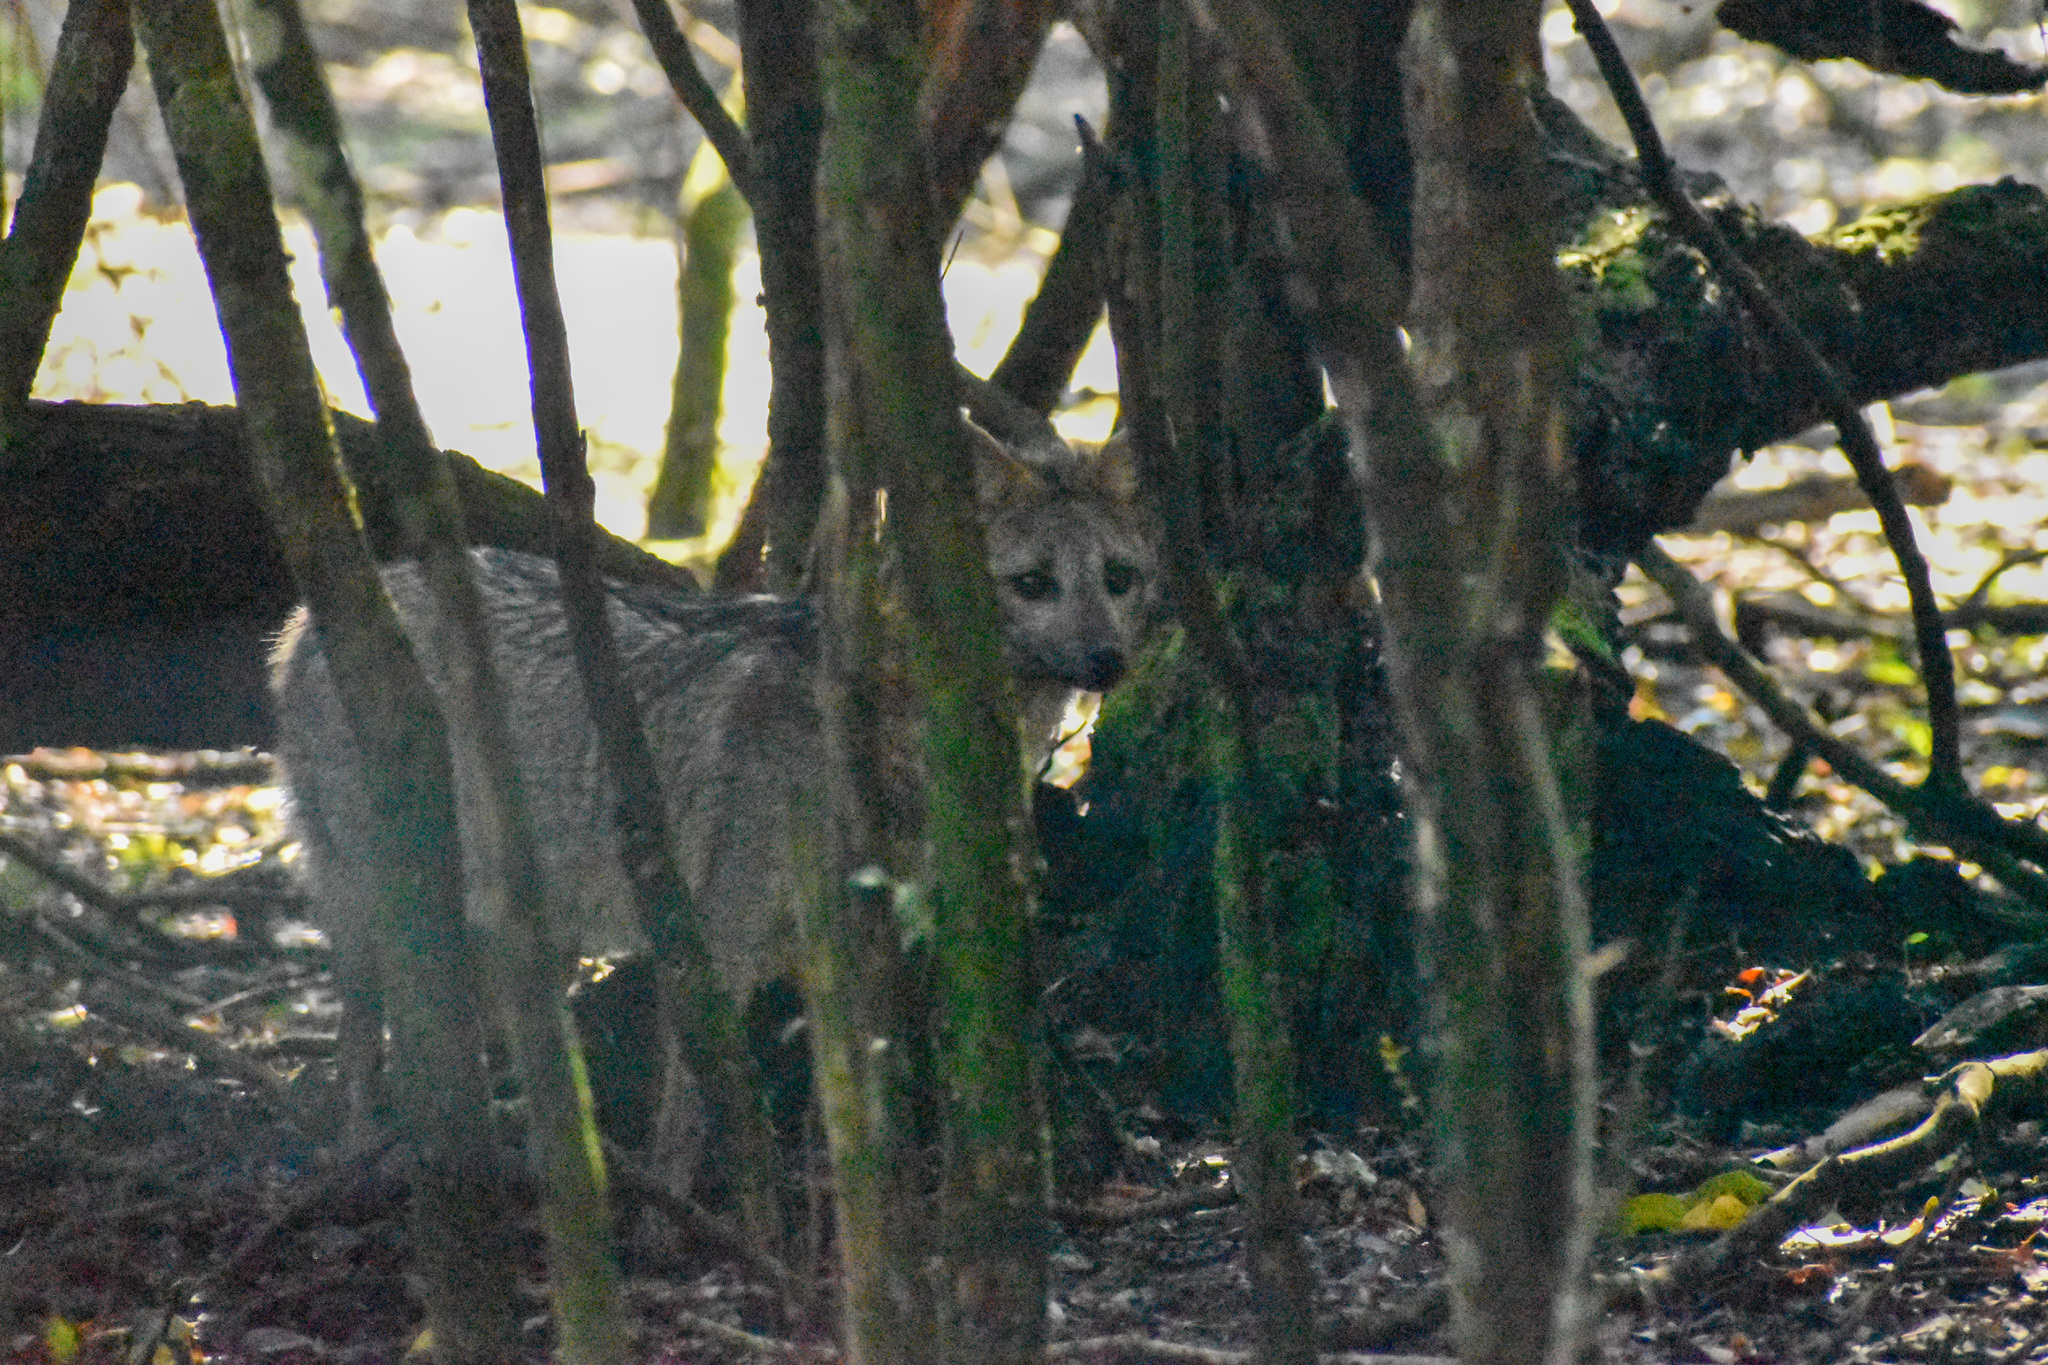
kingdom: Animalia
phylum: Chordata
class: Mammalia
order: Carnivora
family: Canidae
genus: Cerdocyon
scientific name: Cerdocyon thous
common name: Crab-eating fox
